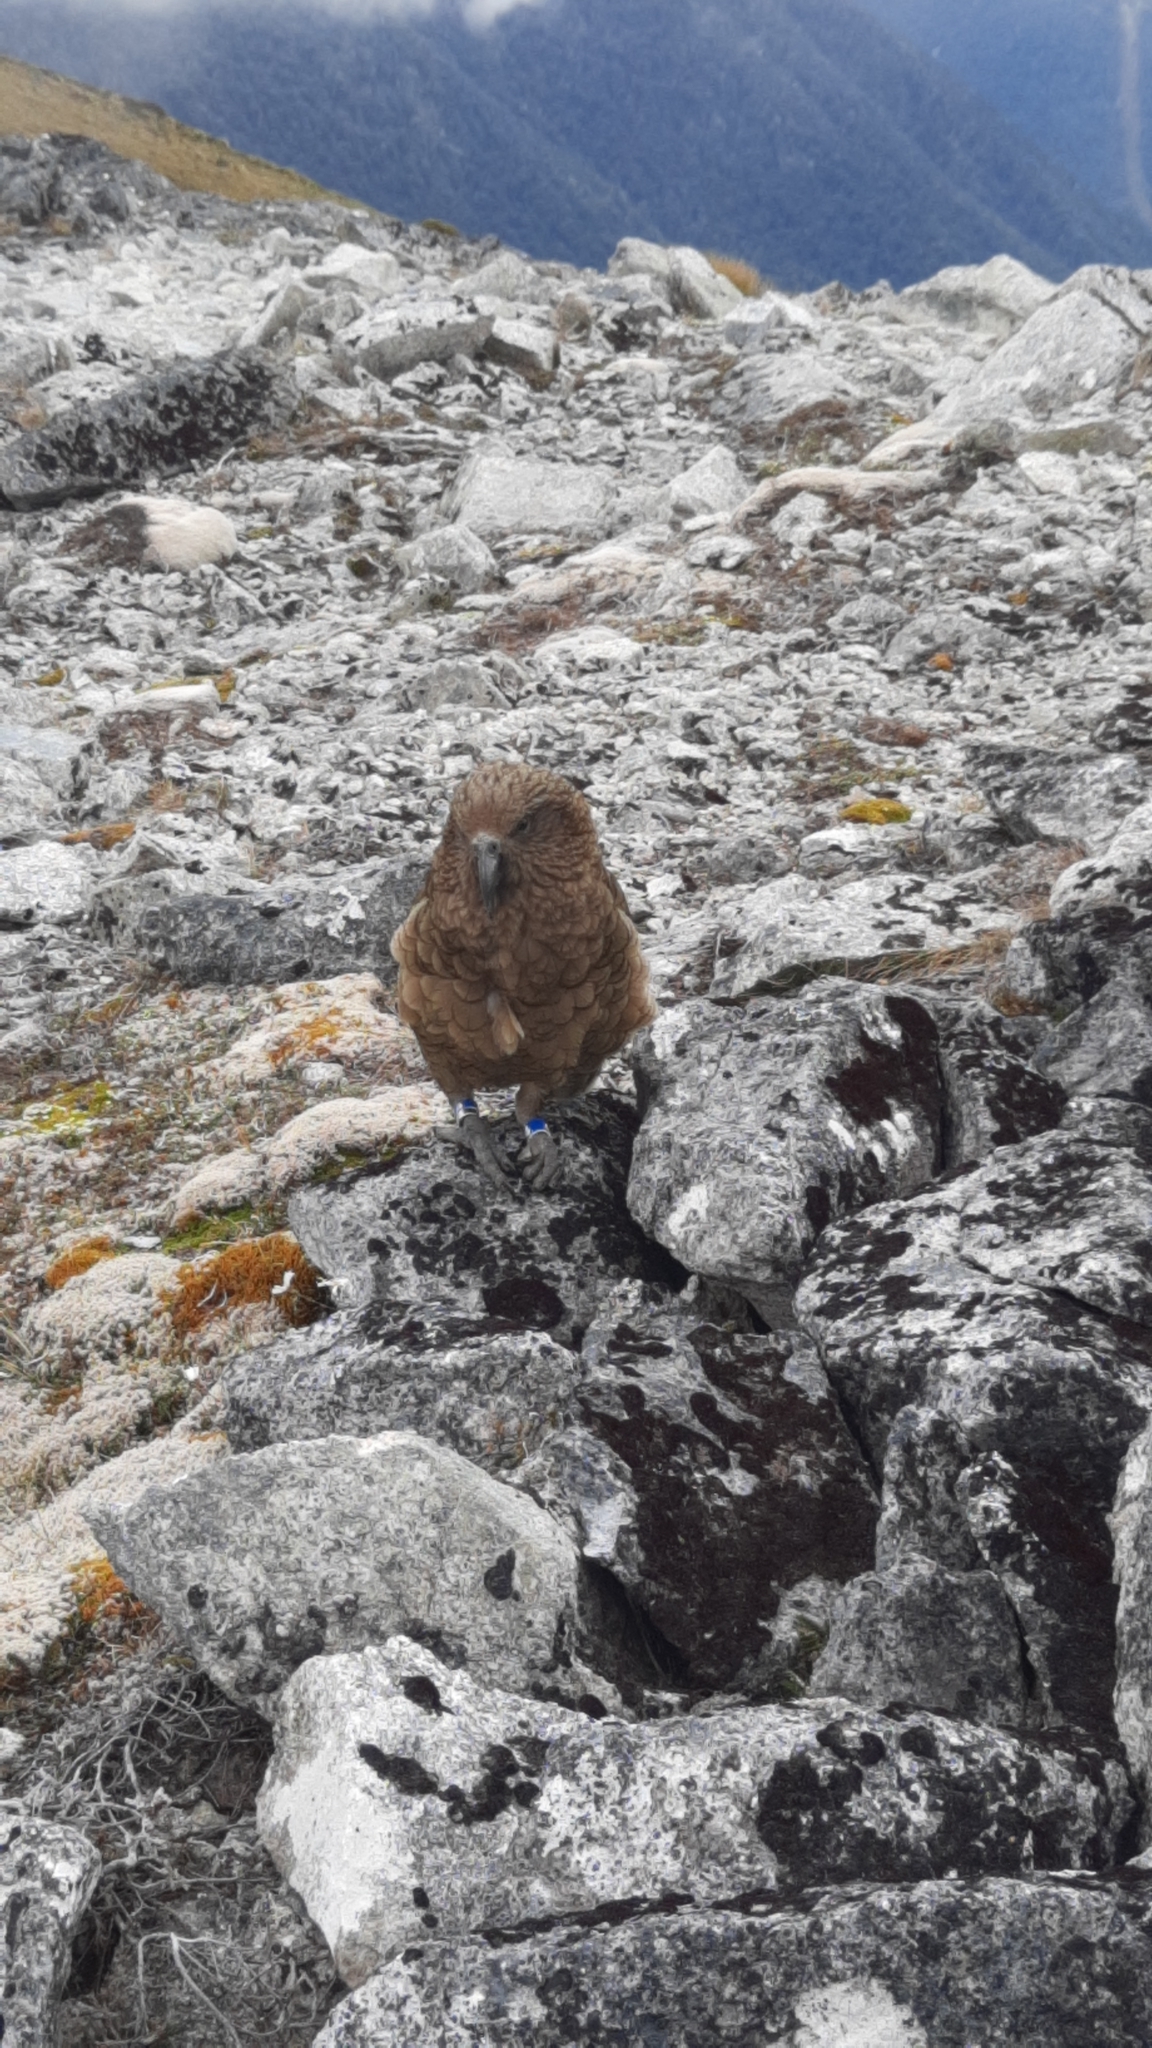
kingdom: Animalia
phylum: Chordata
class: Aves
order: Psittaciformes
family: Psittacidae
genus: Nestor
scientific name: Nestor notabilis
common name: Kea
